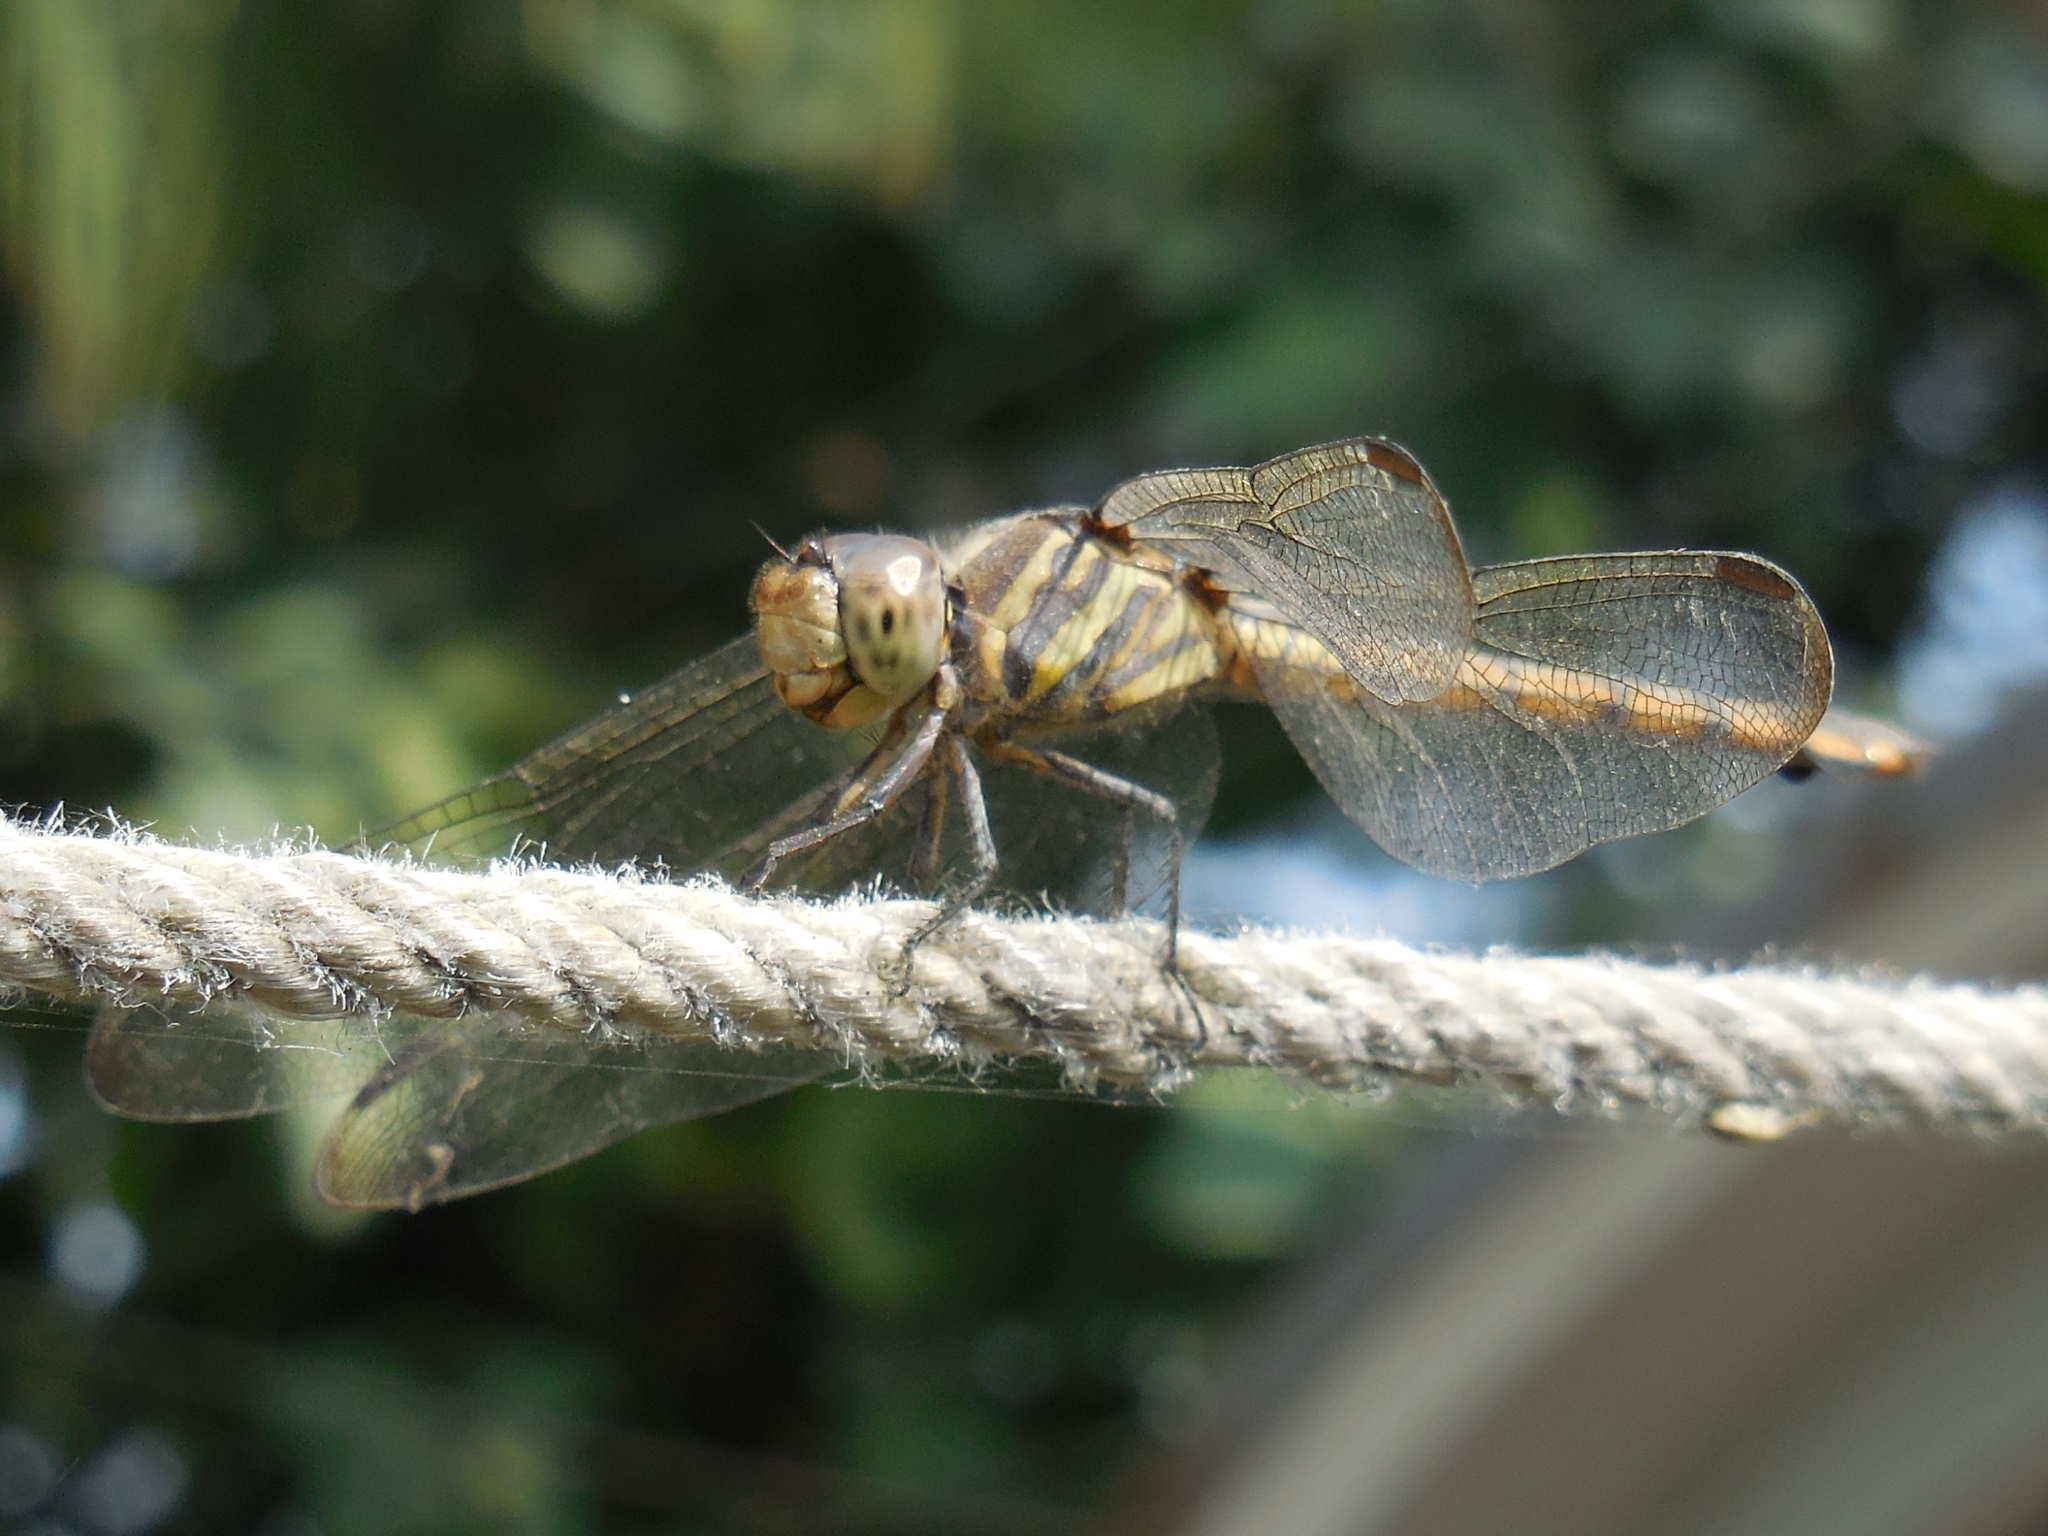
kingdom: Animalia
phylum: Arthropoda
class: Insecta
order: Odonata
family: Libellulidae
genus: Potamarcha
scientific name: Potamarcha congener
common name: Blue chaser
